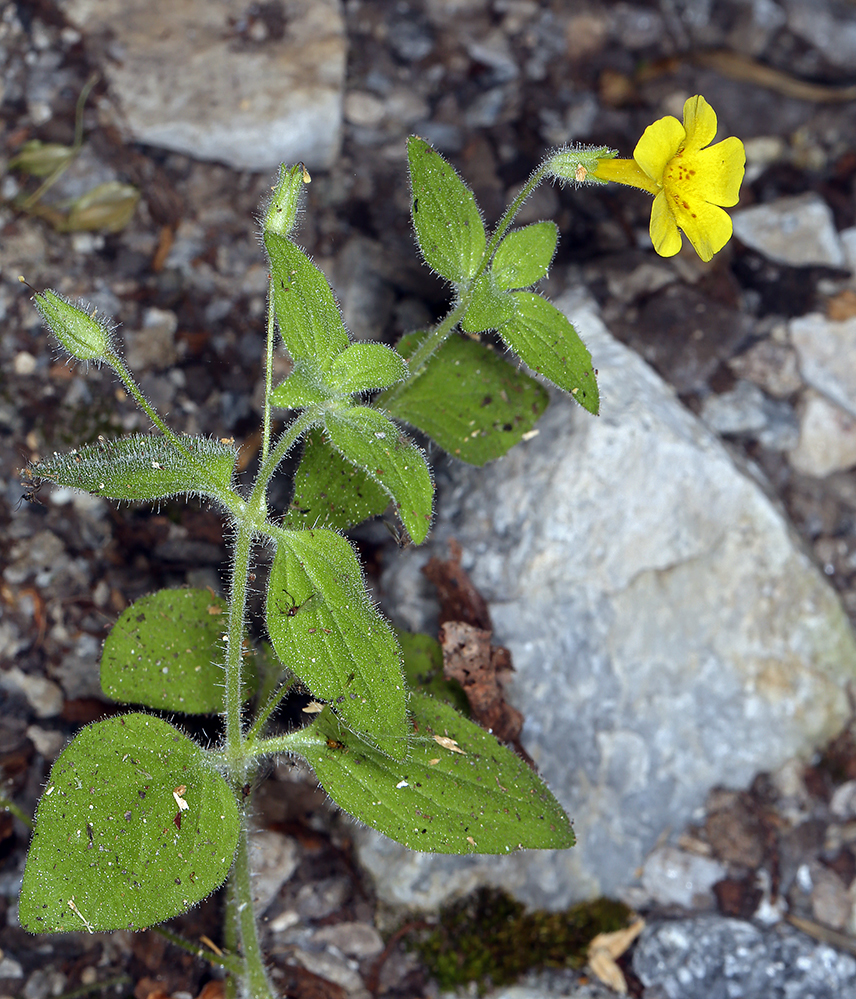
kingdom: Plantae
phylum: Tracheophyta
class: Magnoliopsida
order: Lamiales
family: Phrymaceae
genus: Erythranthe
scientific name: Erythranthe arenaria
